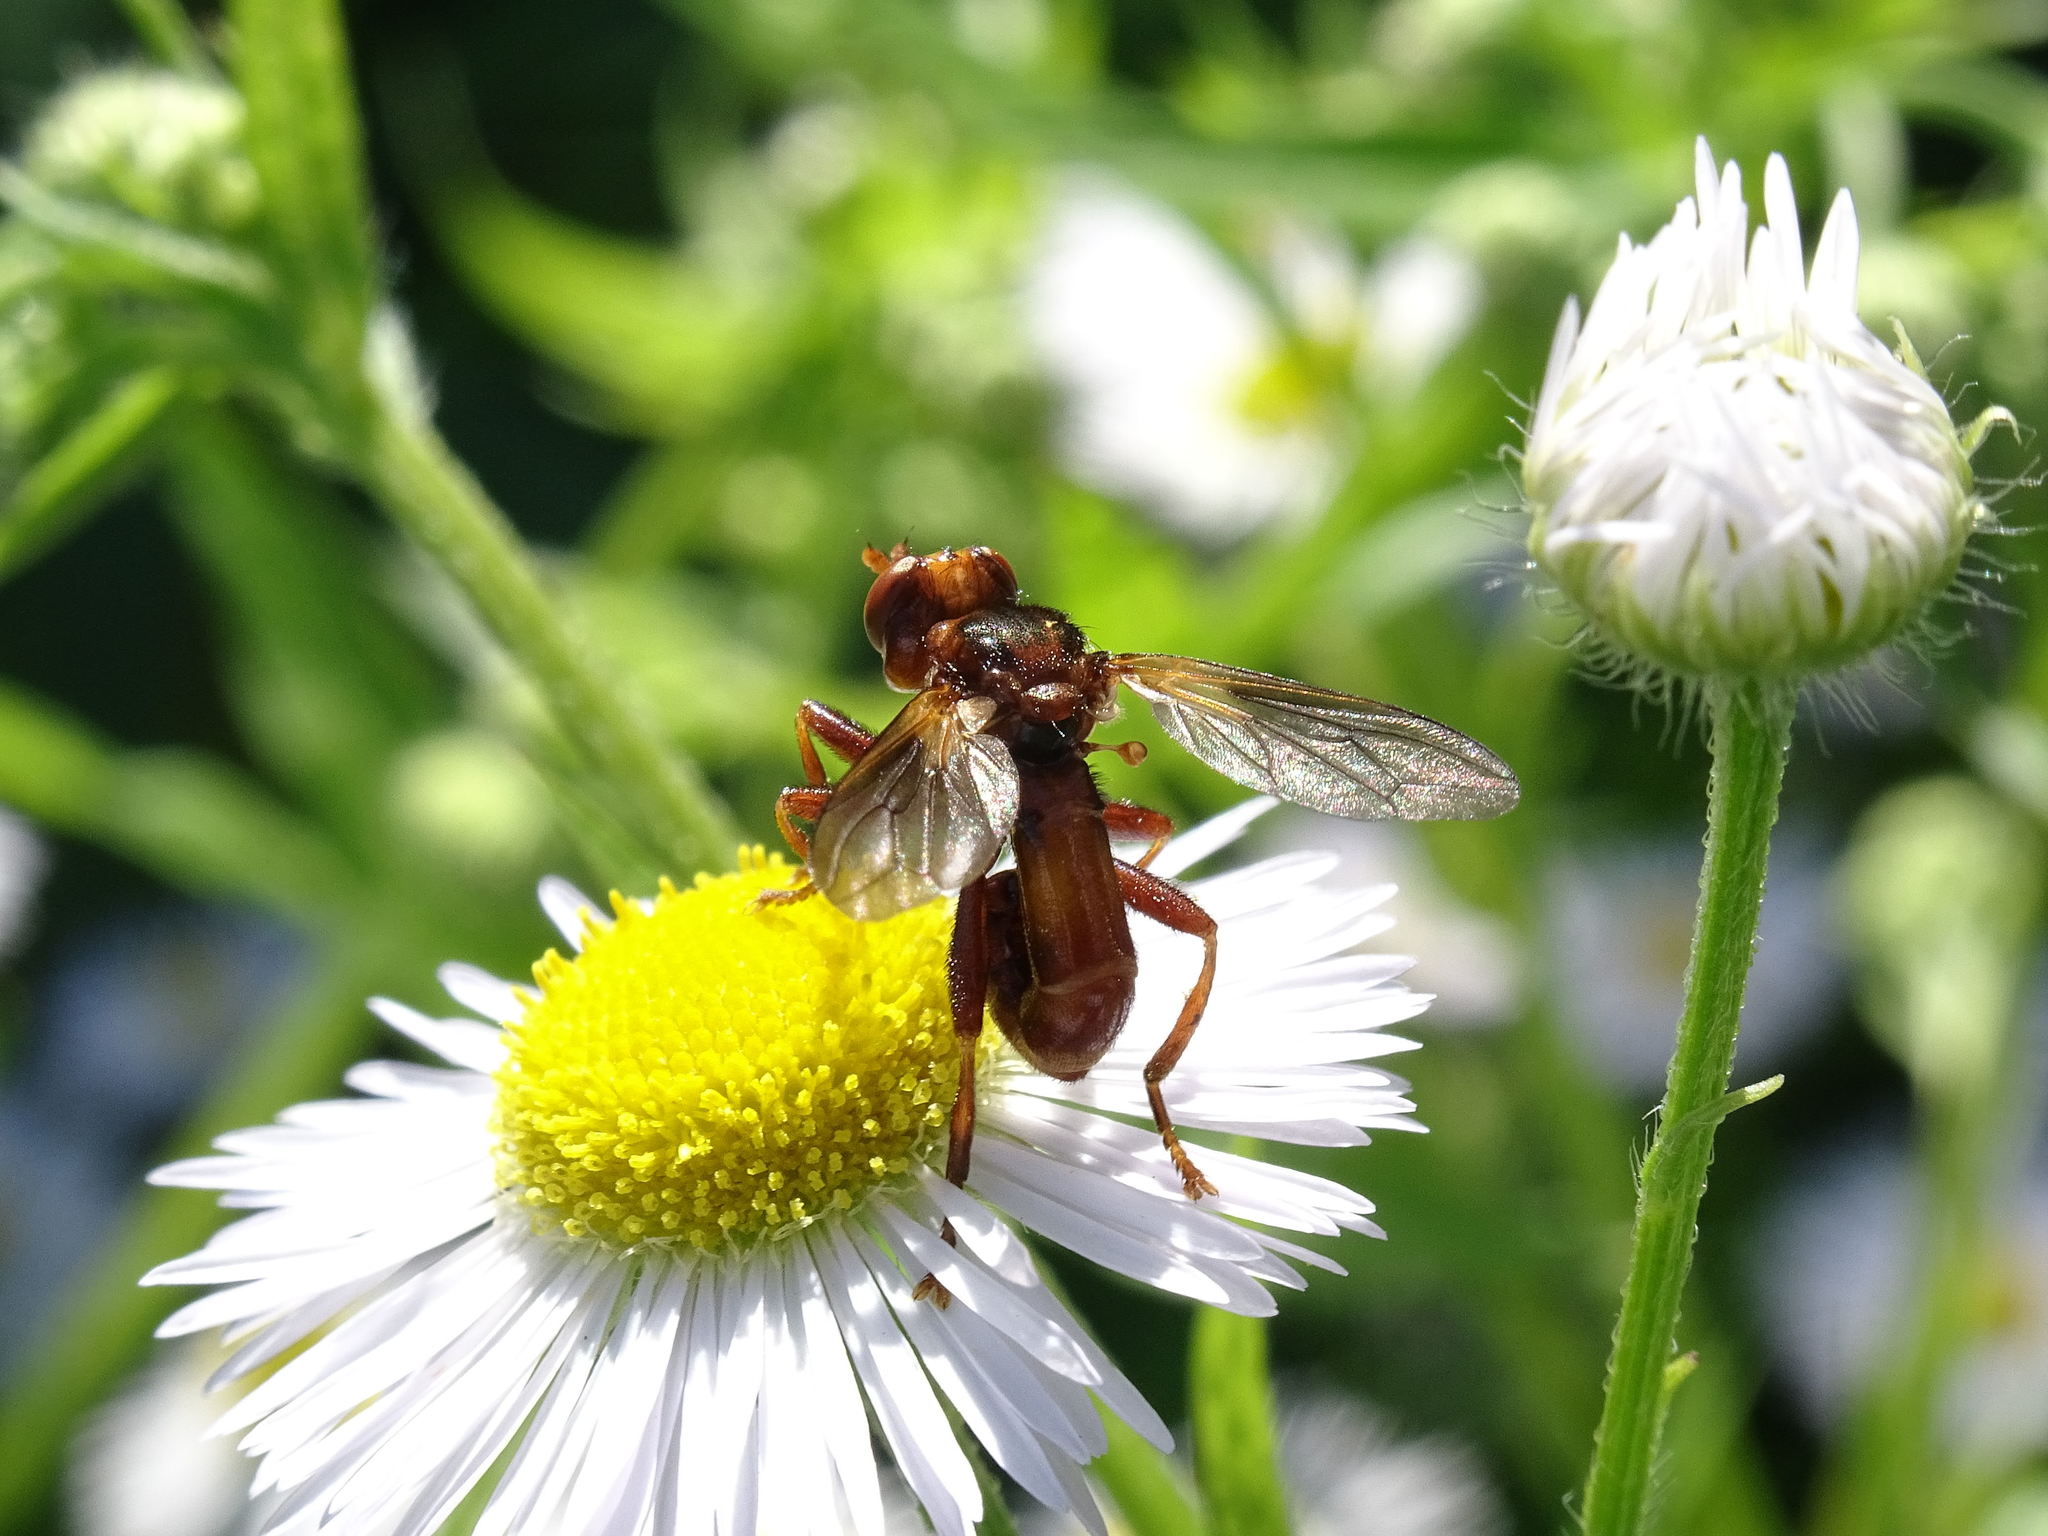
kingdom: Animalia
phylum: Arthropoda
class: Insecta
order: Diptera
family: Conopidae
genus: Sicus
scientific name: Sicus ferrugineus
